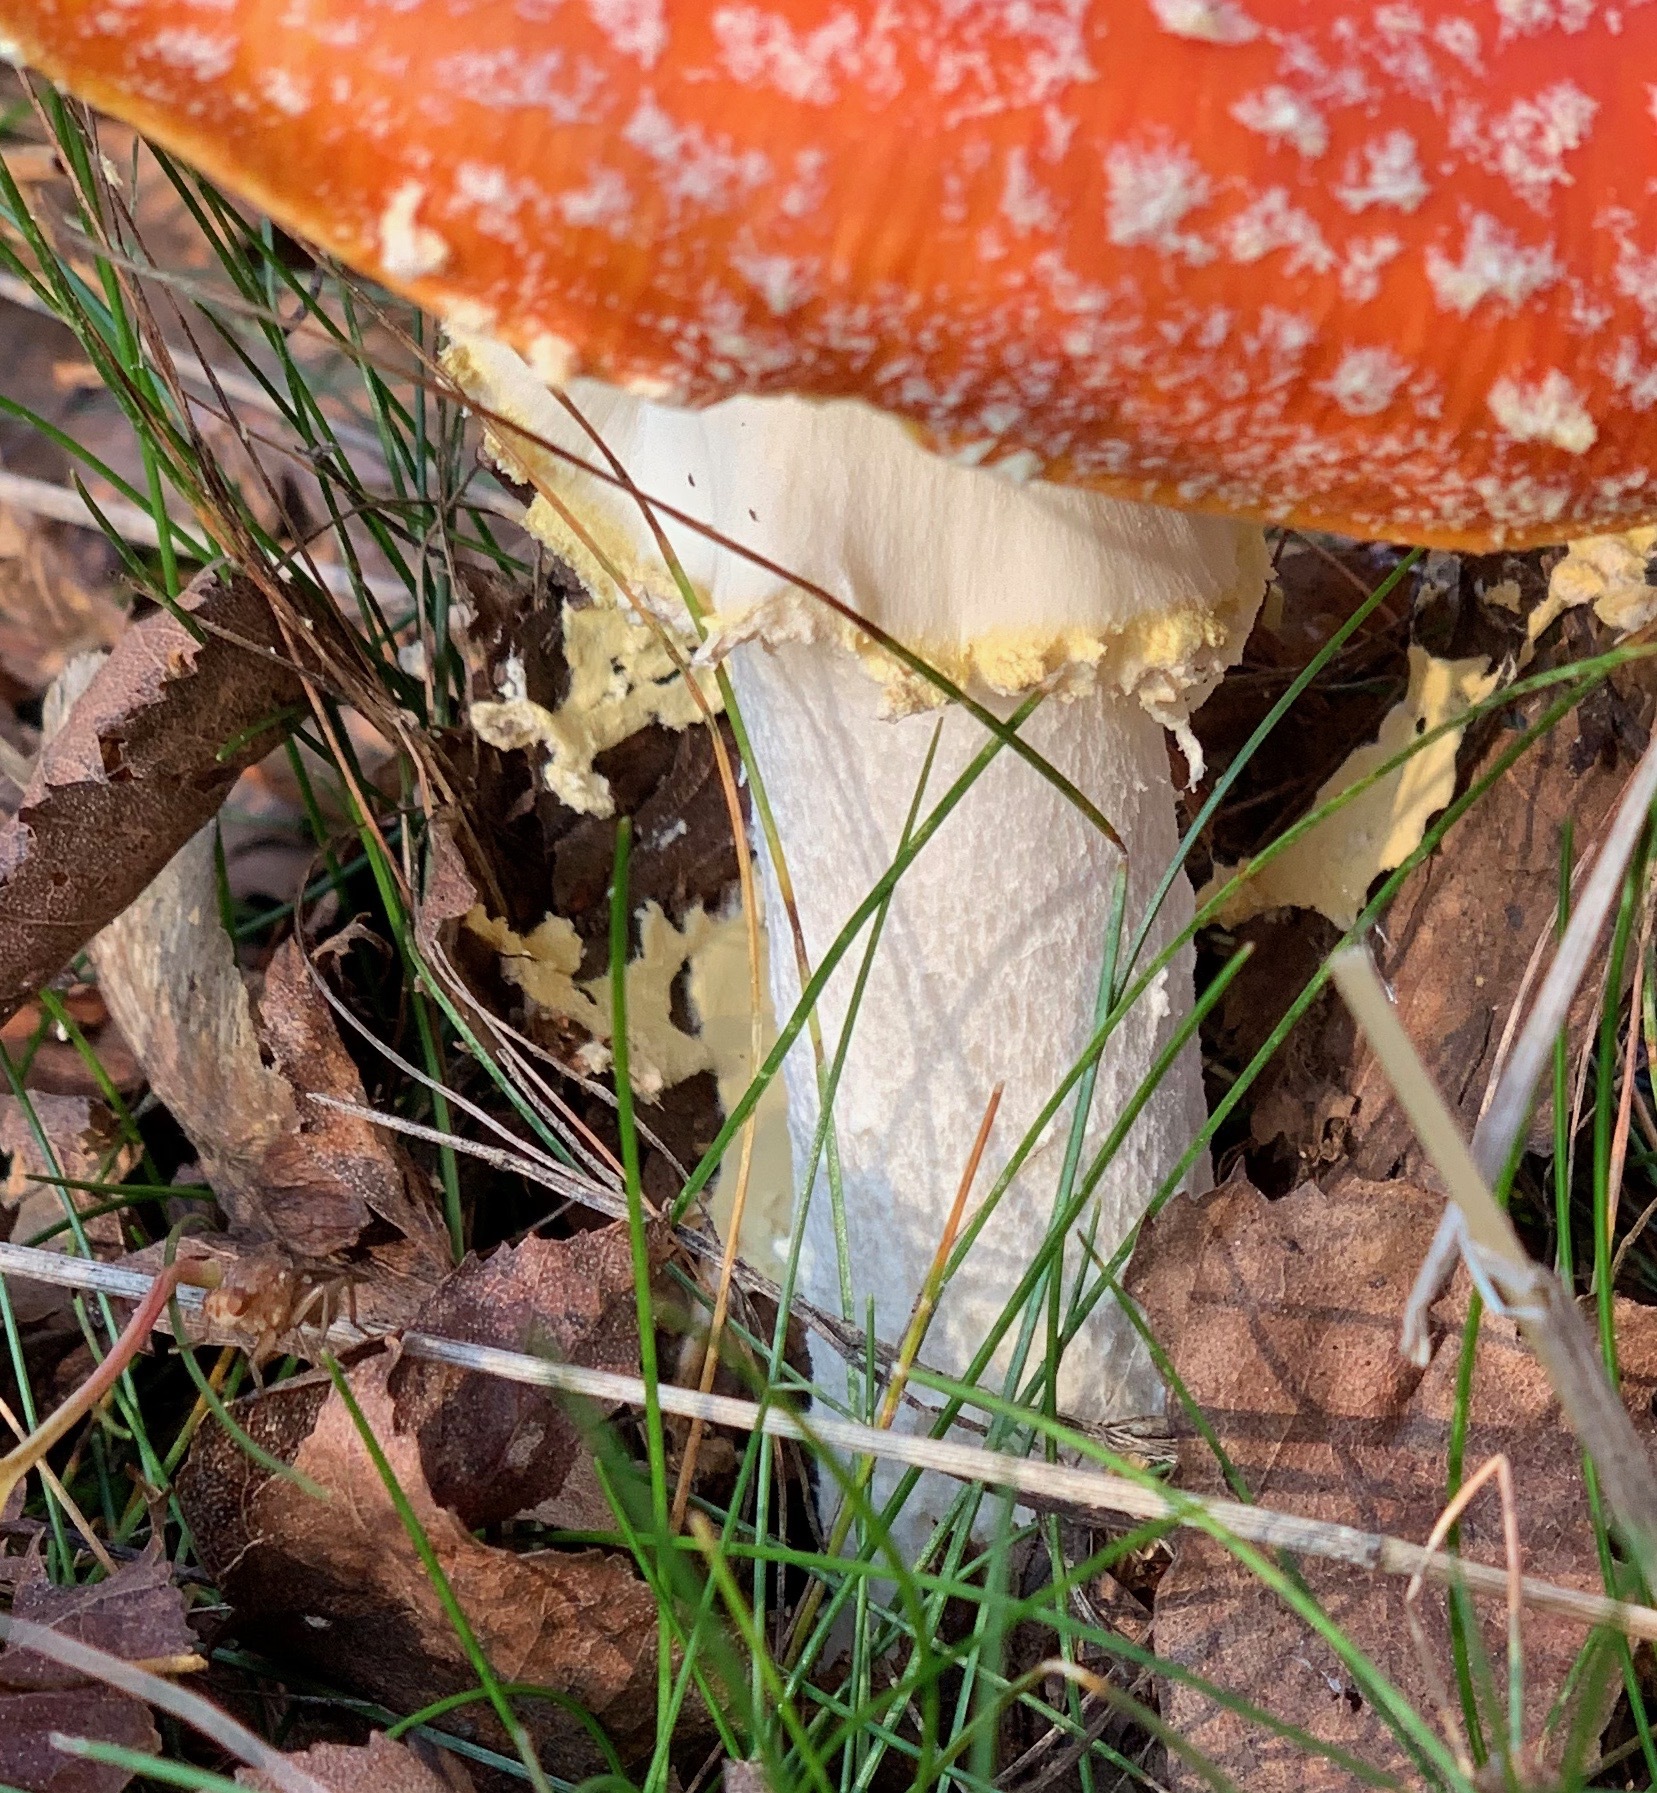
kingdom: Fungi
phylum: Basidiomycota
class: Agaricomycetes
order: Agaricales
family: Amanitaceae
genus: Amanita
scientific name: Amanita muscaria
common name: Fly agaric
